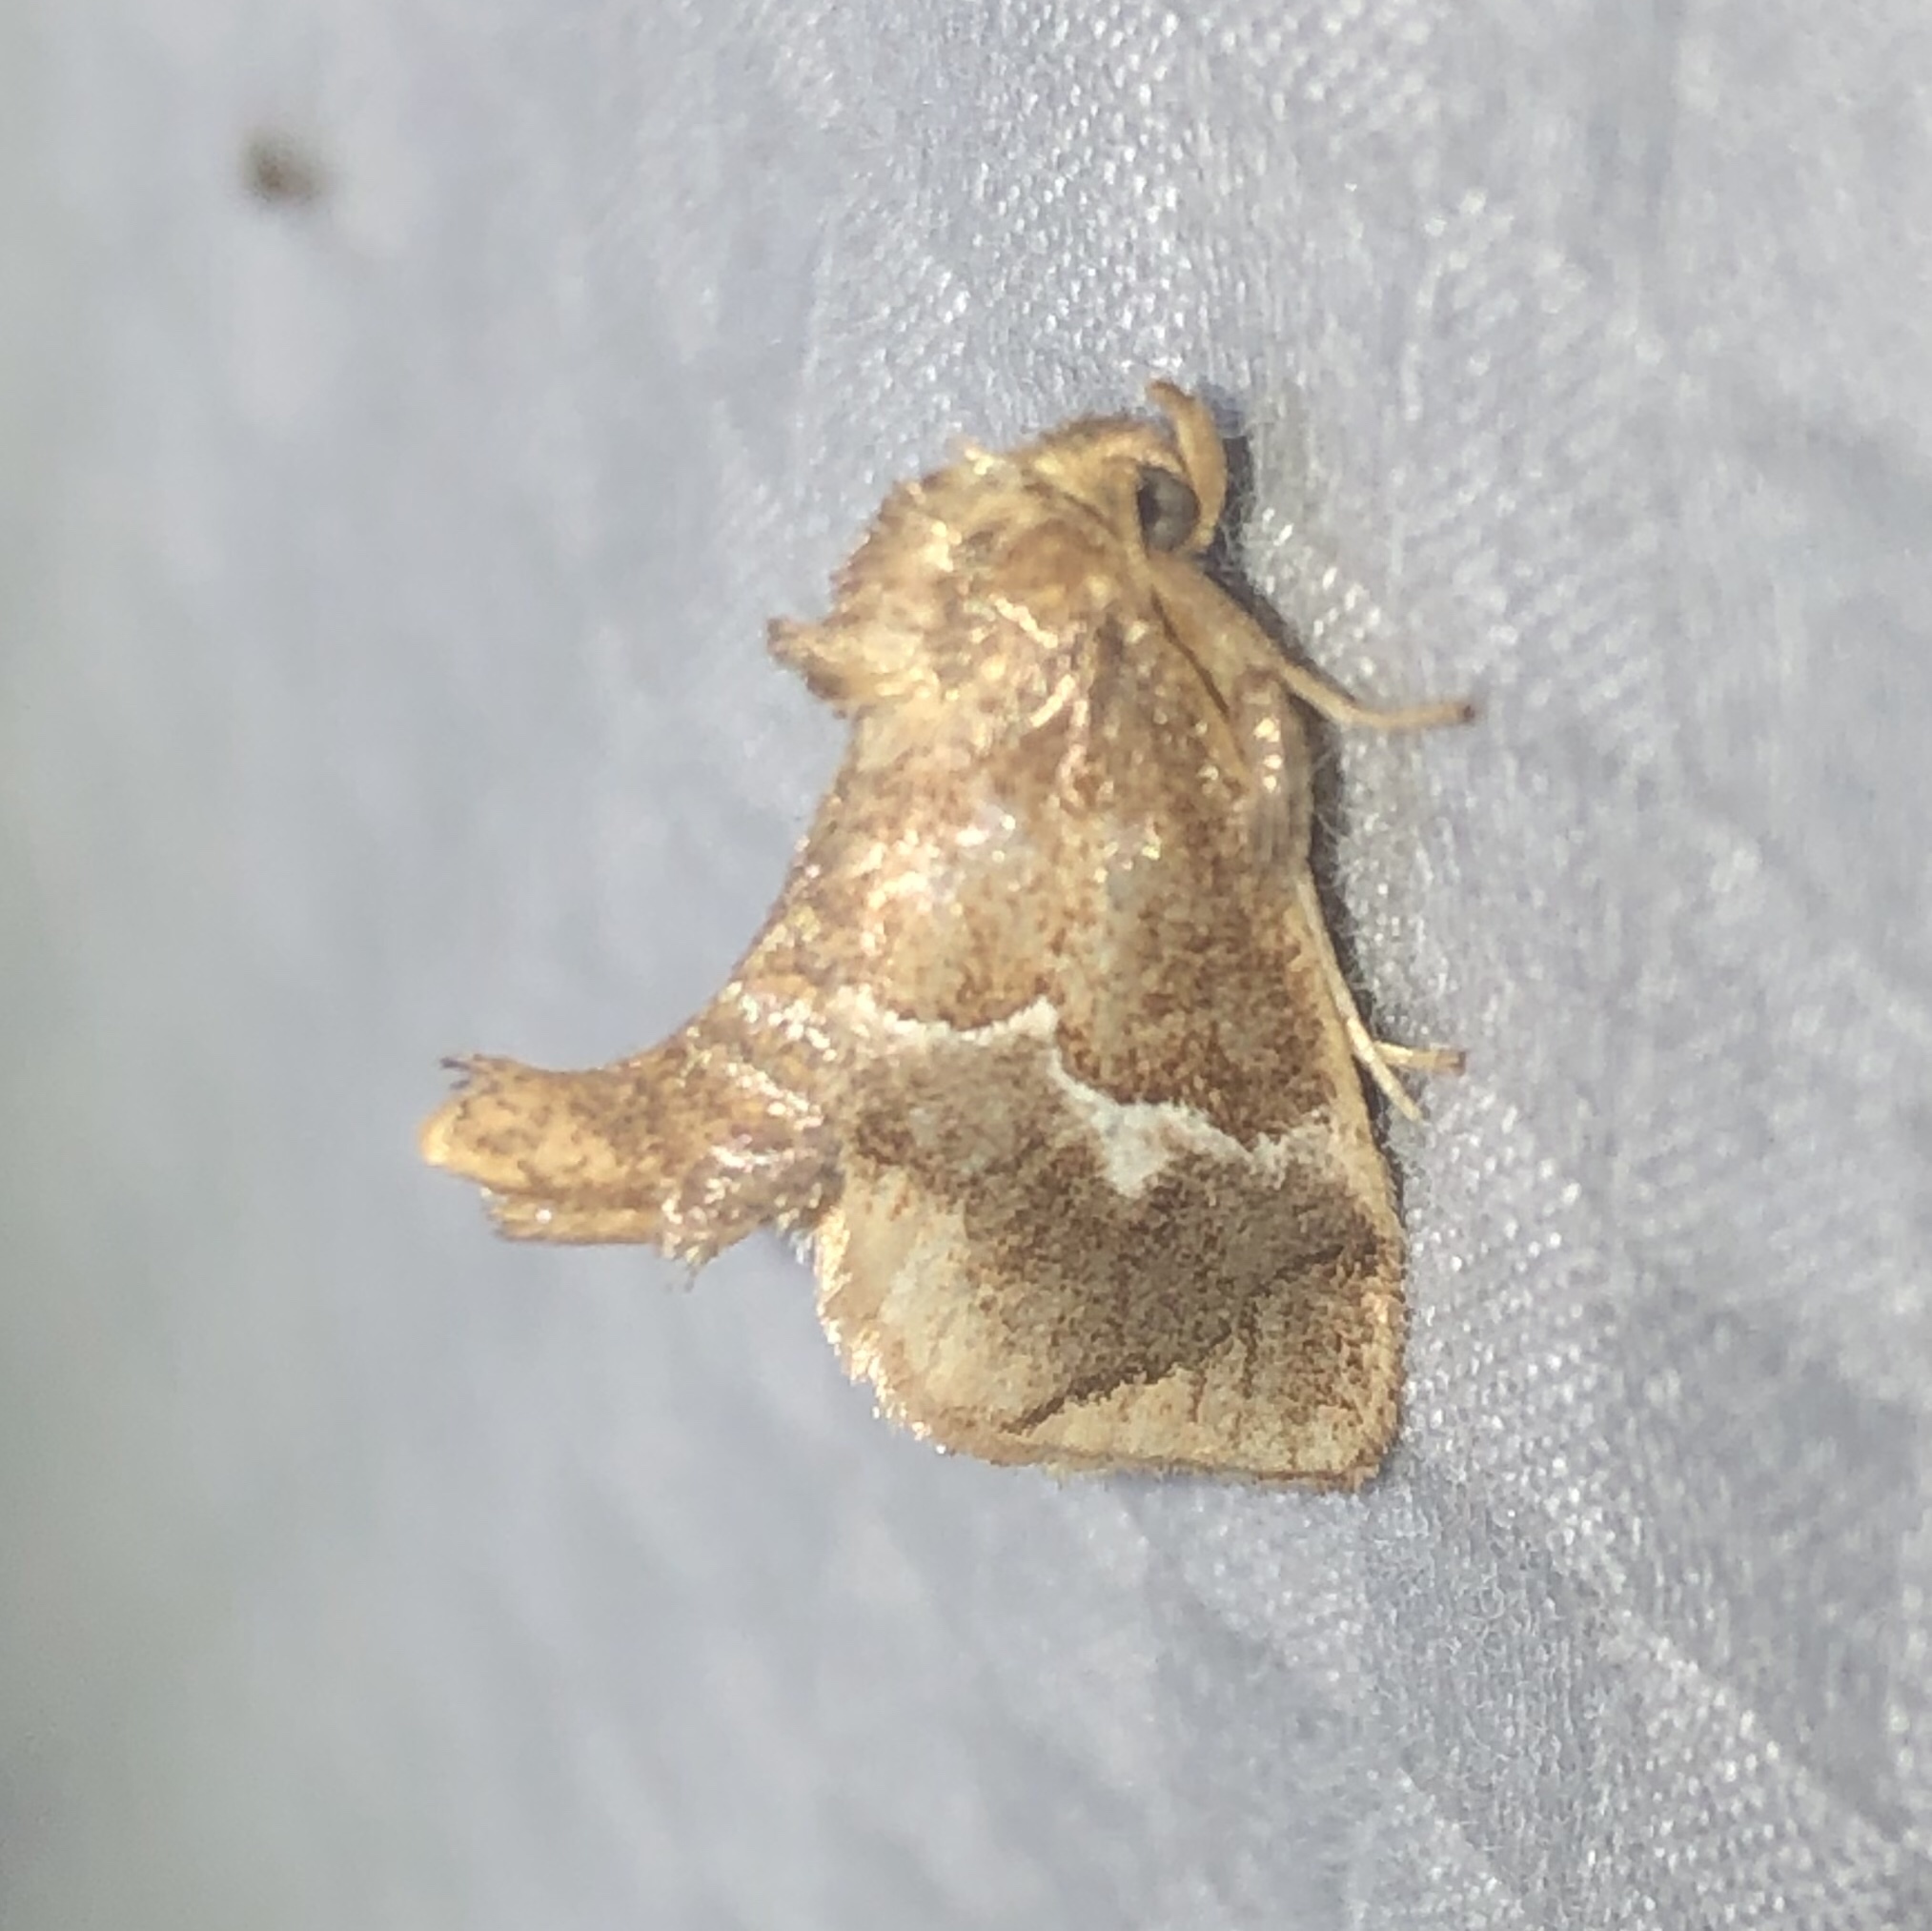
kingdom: Animalia
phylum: Arthropoda
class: Insecta
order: Lepidoptera
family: Limacodidae
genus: Lithacodes
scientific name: Lithacodes fasciola
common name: Yellow-shouldered slug moth
